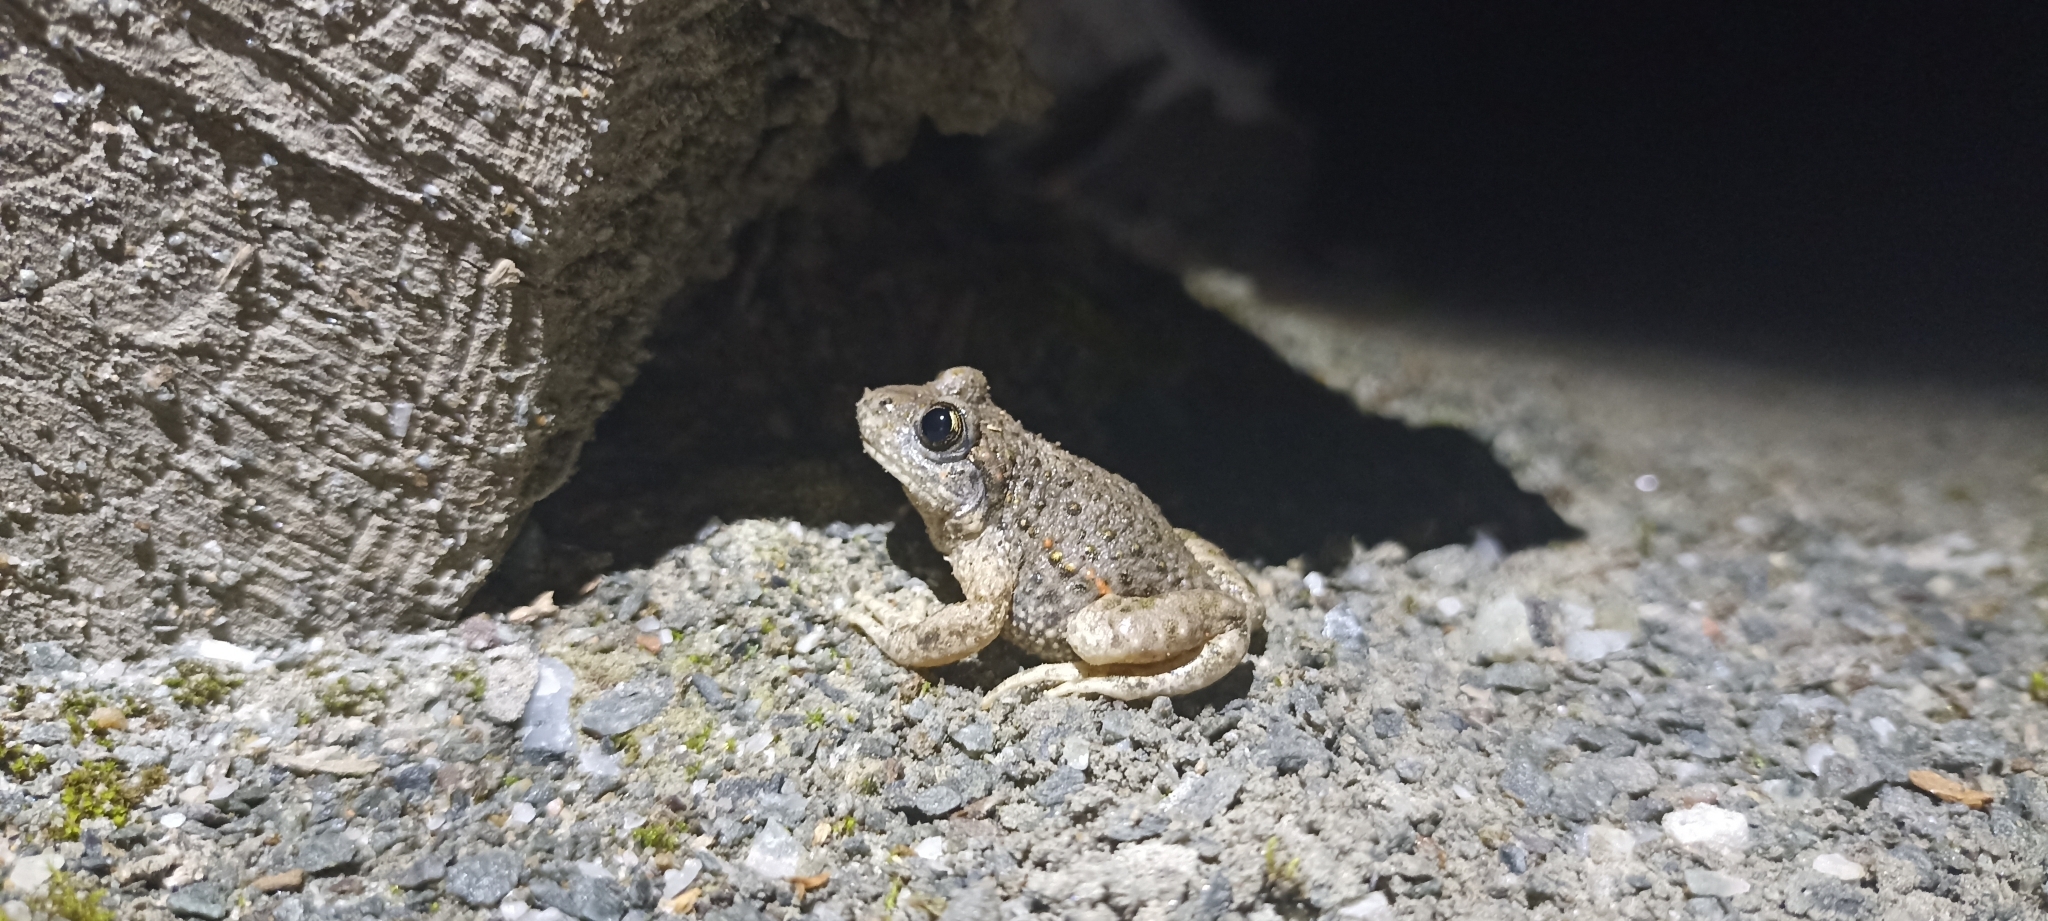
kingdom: Animalia
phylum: Chordata
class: Amphibia
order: Anura
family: Alytidae
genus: Alytes
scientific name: Alytes obstetricans
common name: Midwife toad
